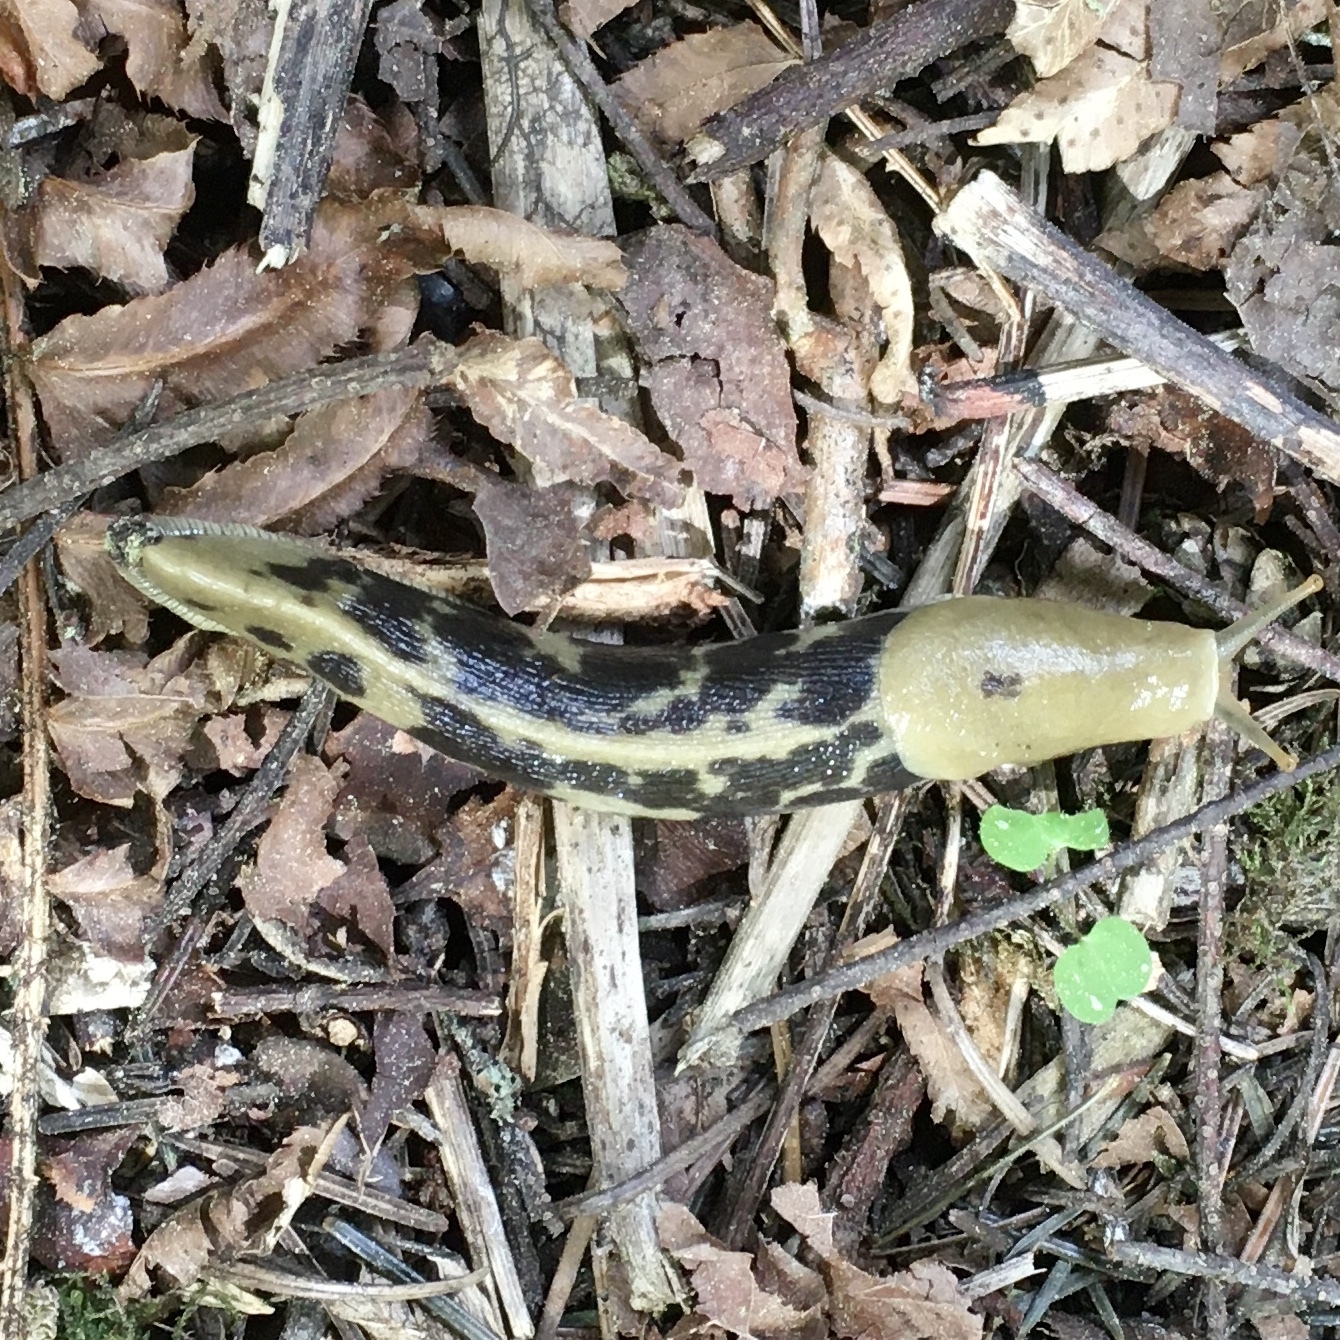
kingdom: Animalia
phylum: Mollusca
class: Gastropoda
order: Stylommatophora
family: Ariolimacidae
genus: Ariolimax
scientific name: Ariolimax columbianus
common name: Pacific banana slug
